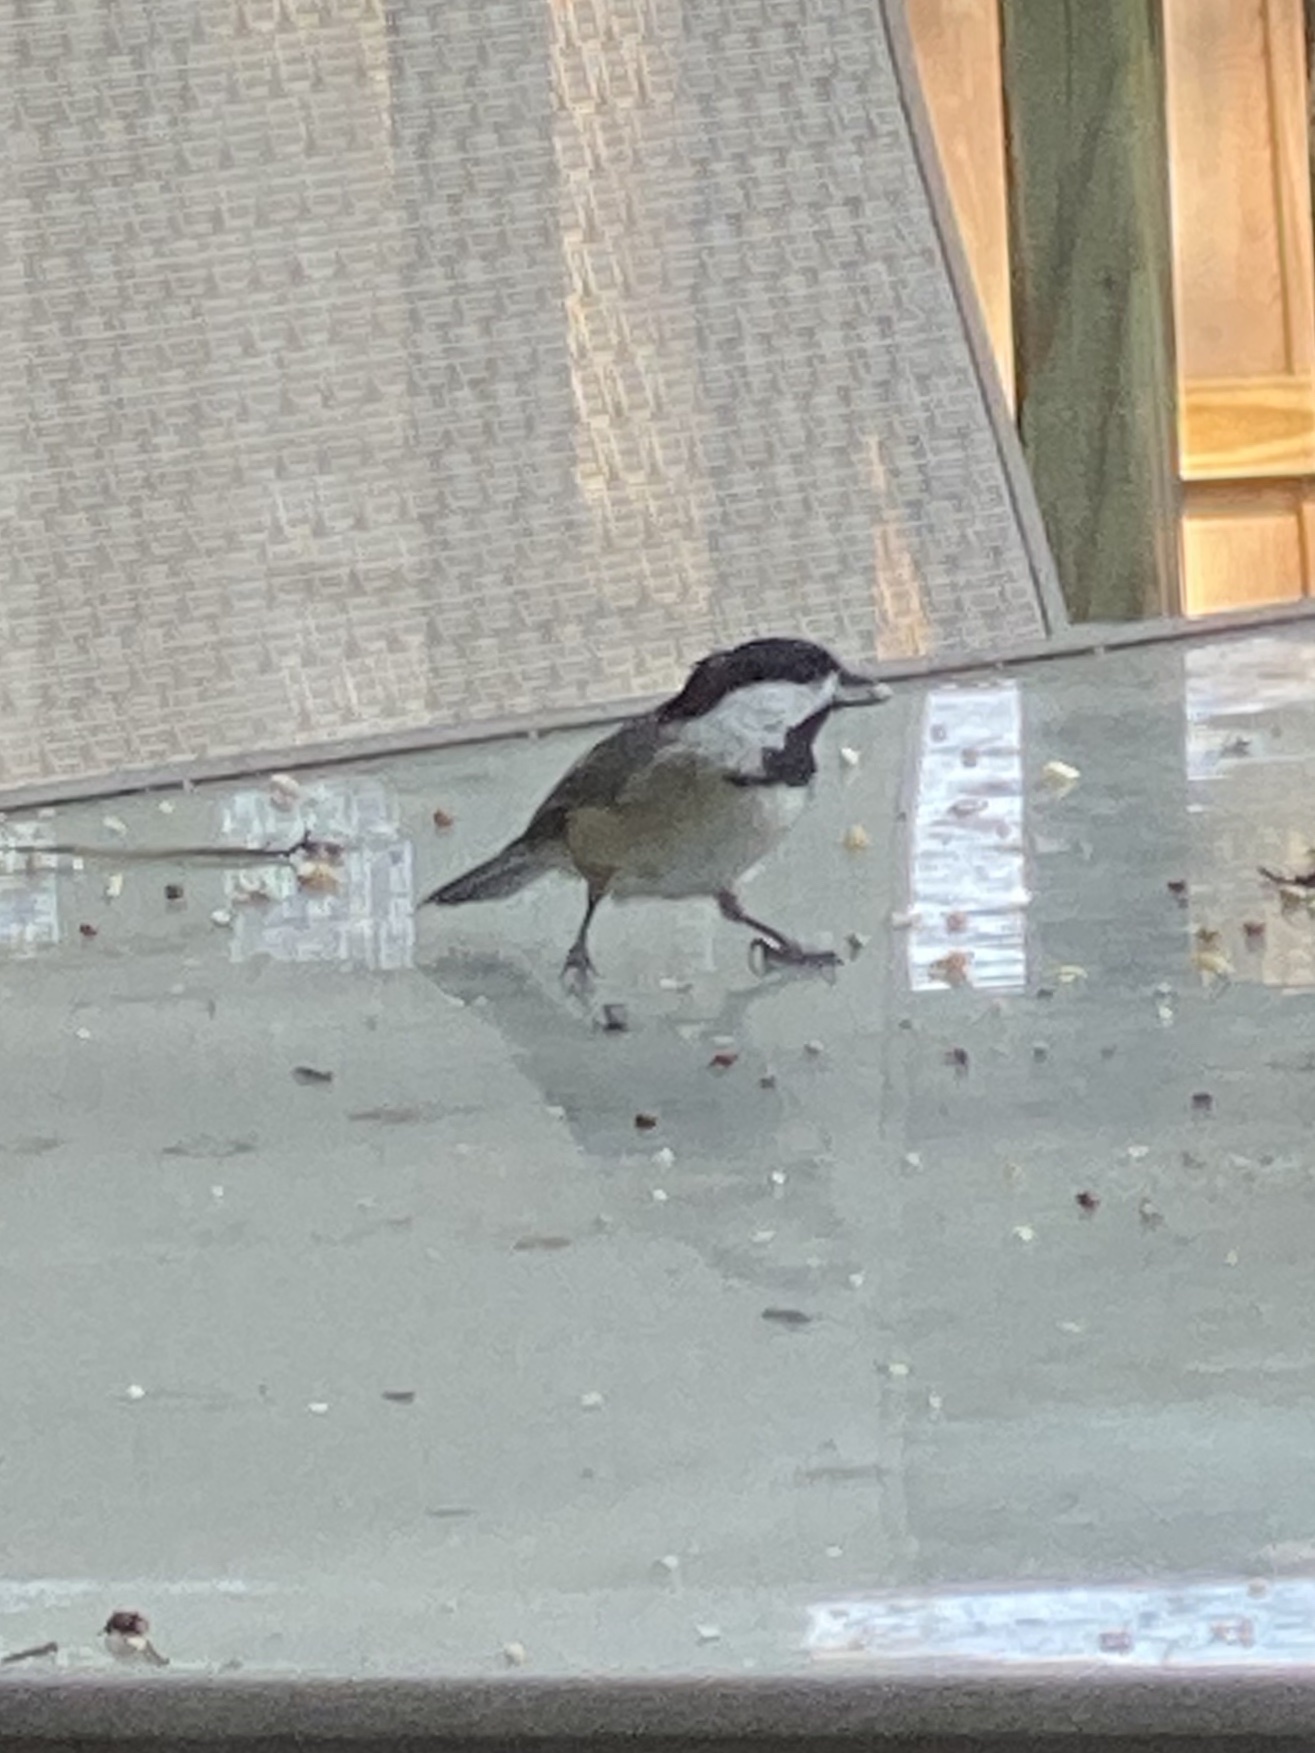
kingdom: Animalia
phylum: Chordata
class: Aves
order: Passeriformes
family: Paridae
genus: Poecile
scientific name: Poecile carolinensis
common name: Carolina chickadee
